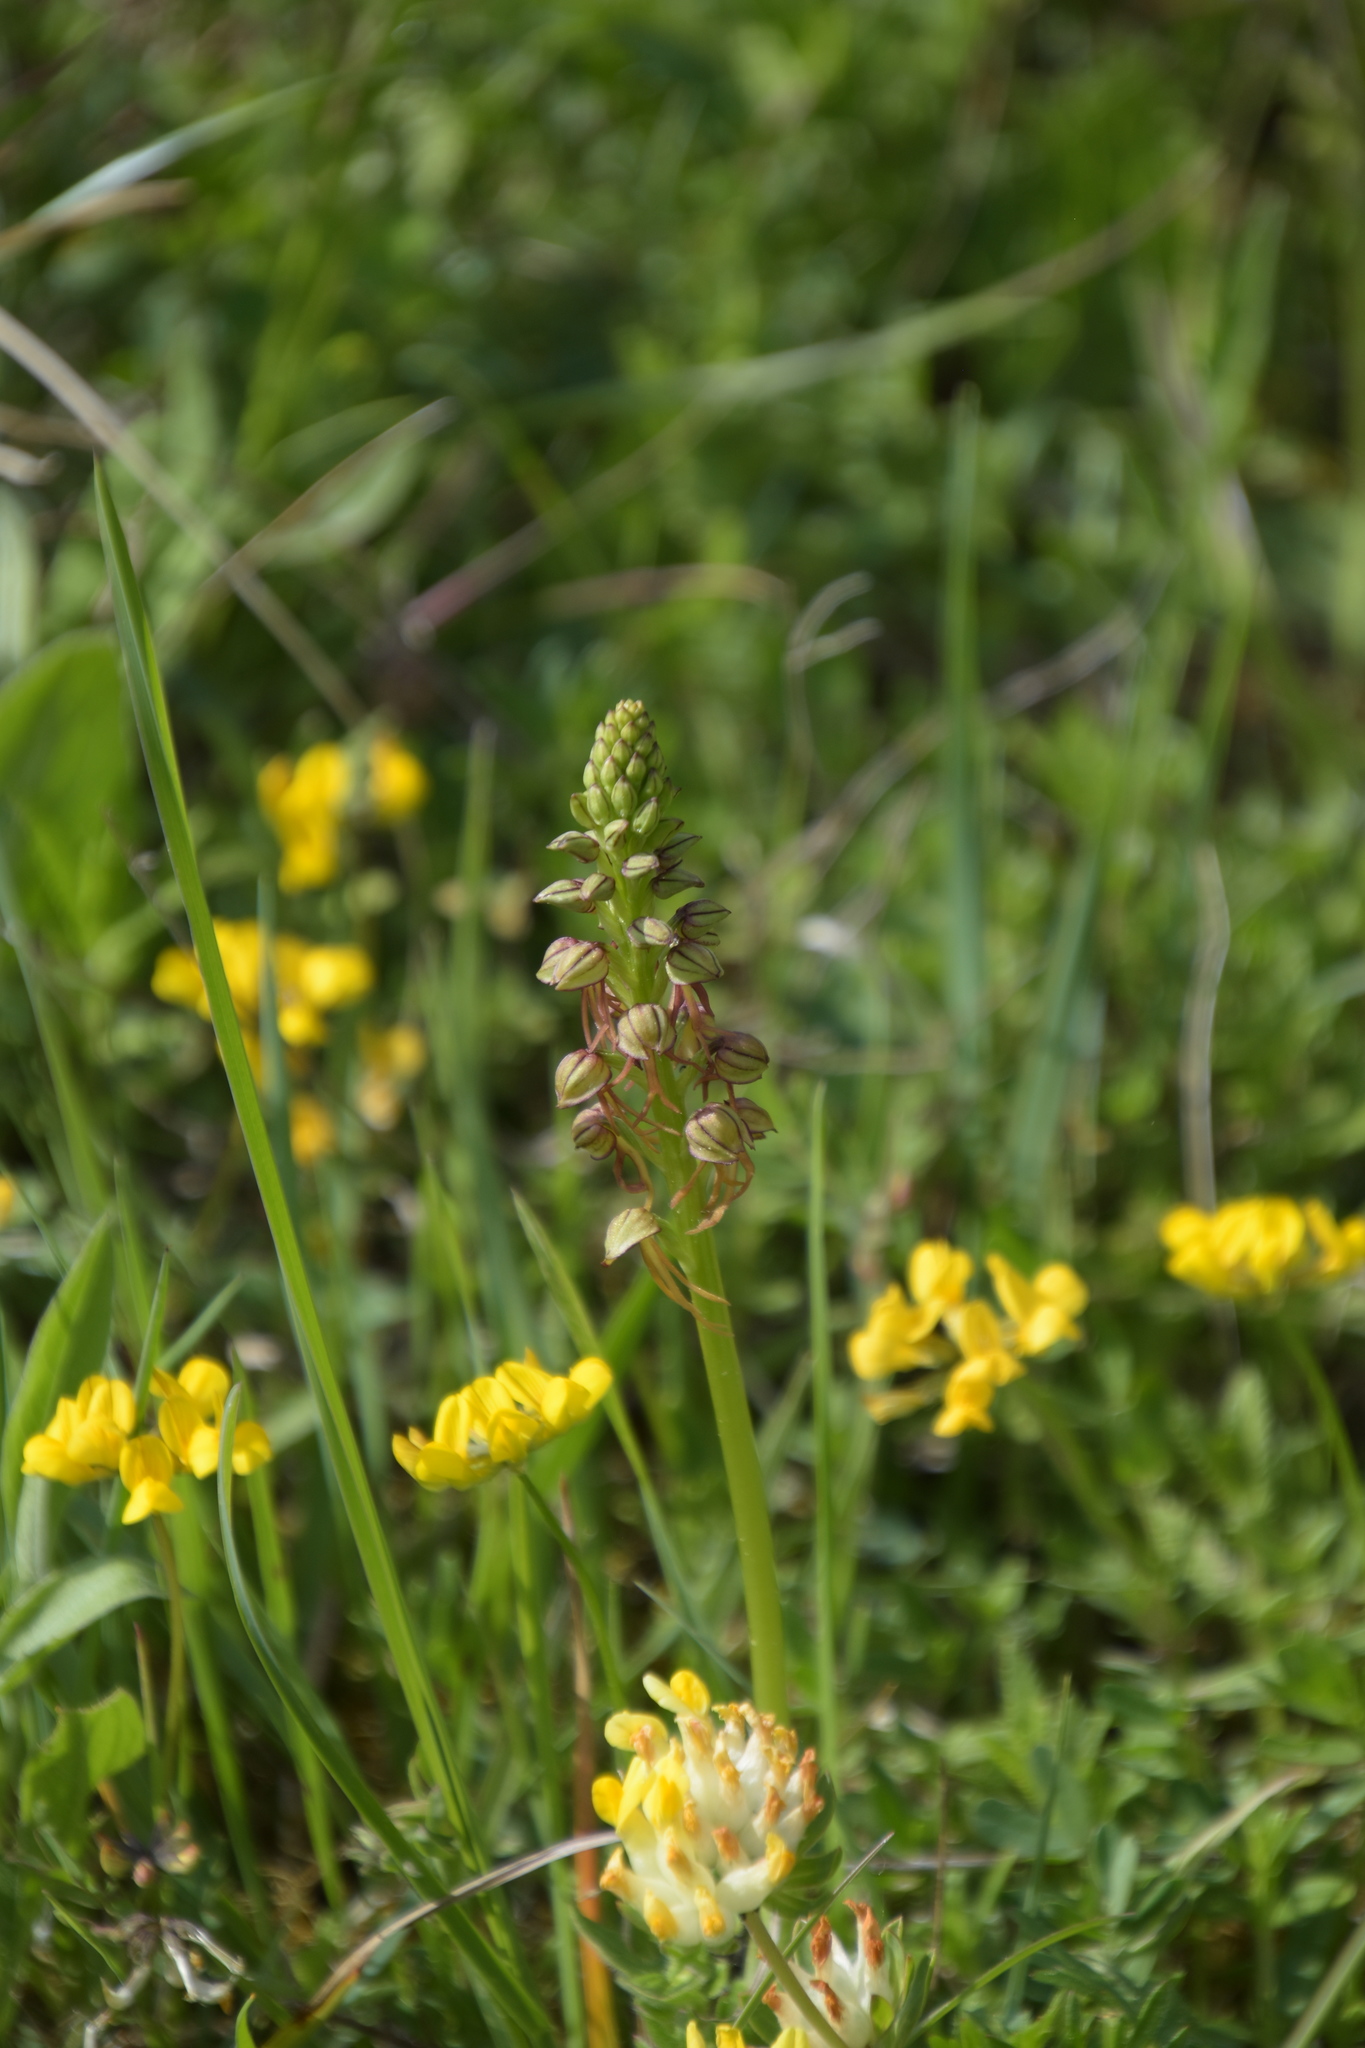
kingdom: Plantae
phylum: Tracheophyta
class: Liliopsida
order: Asparagales
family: Orchidaceae
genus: Orchis
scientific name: Orchis anthropophora
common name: Man orchid
